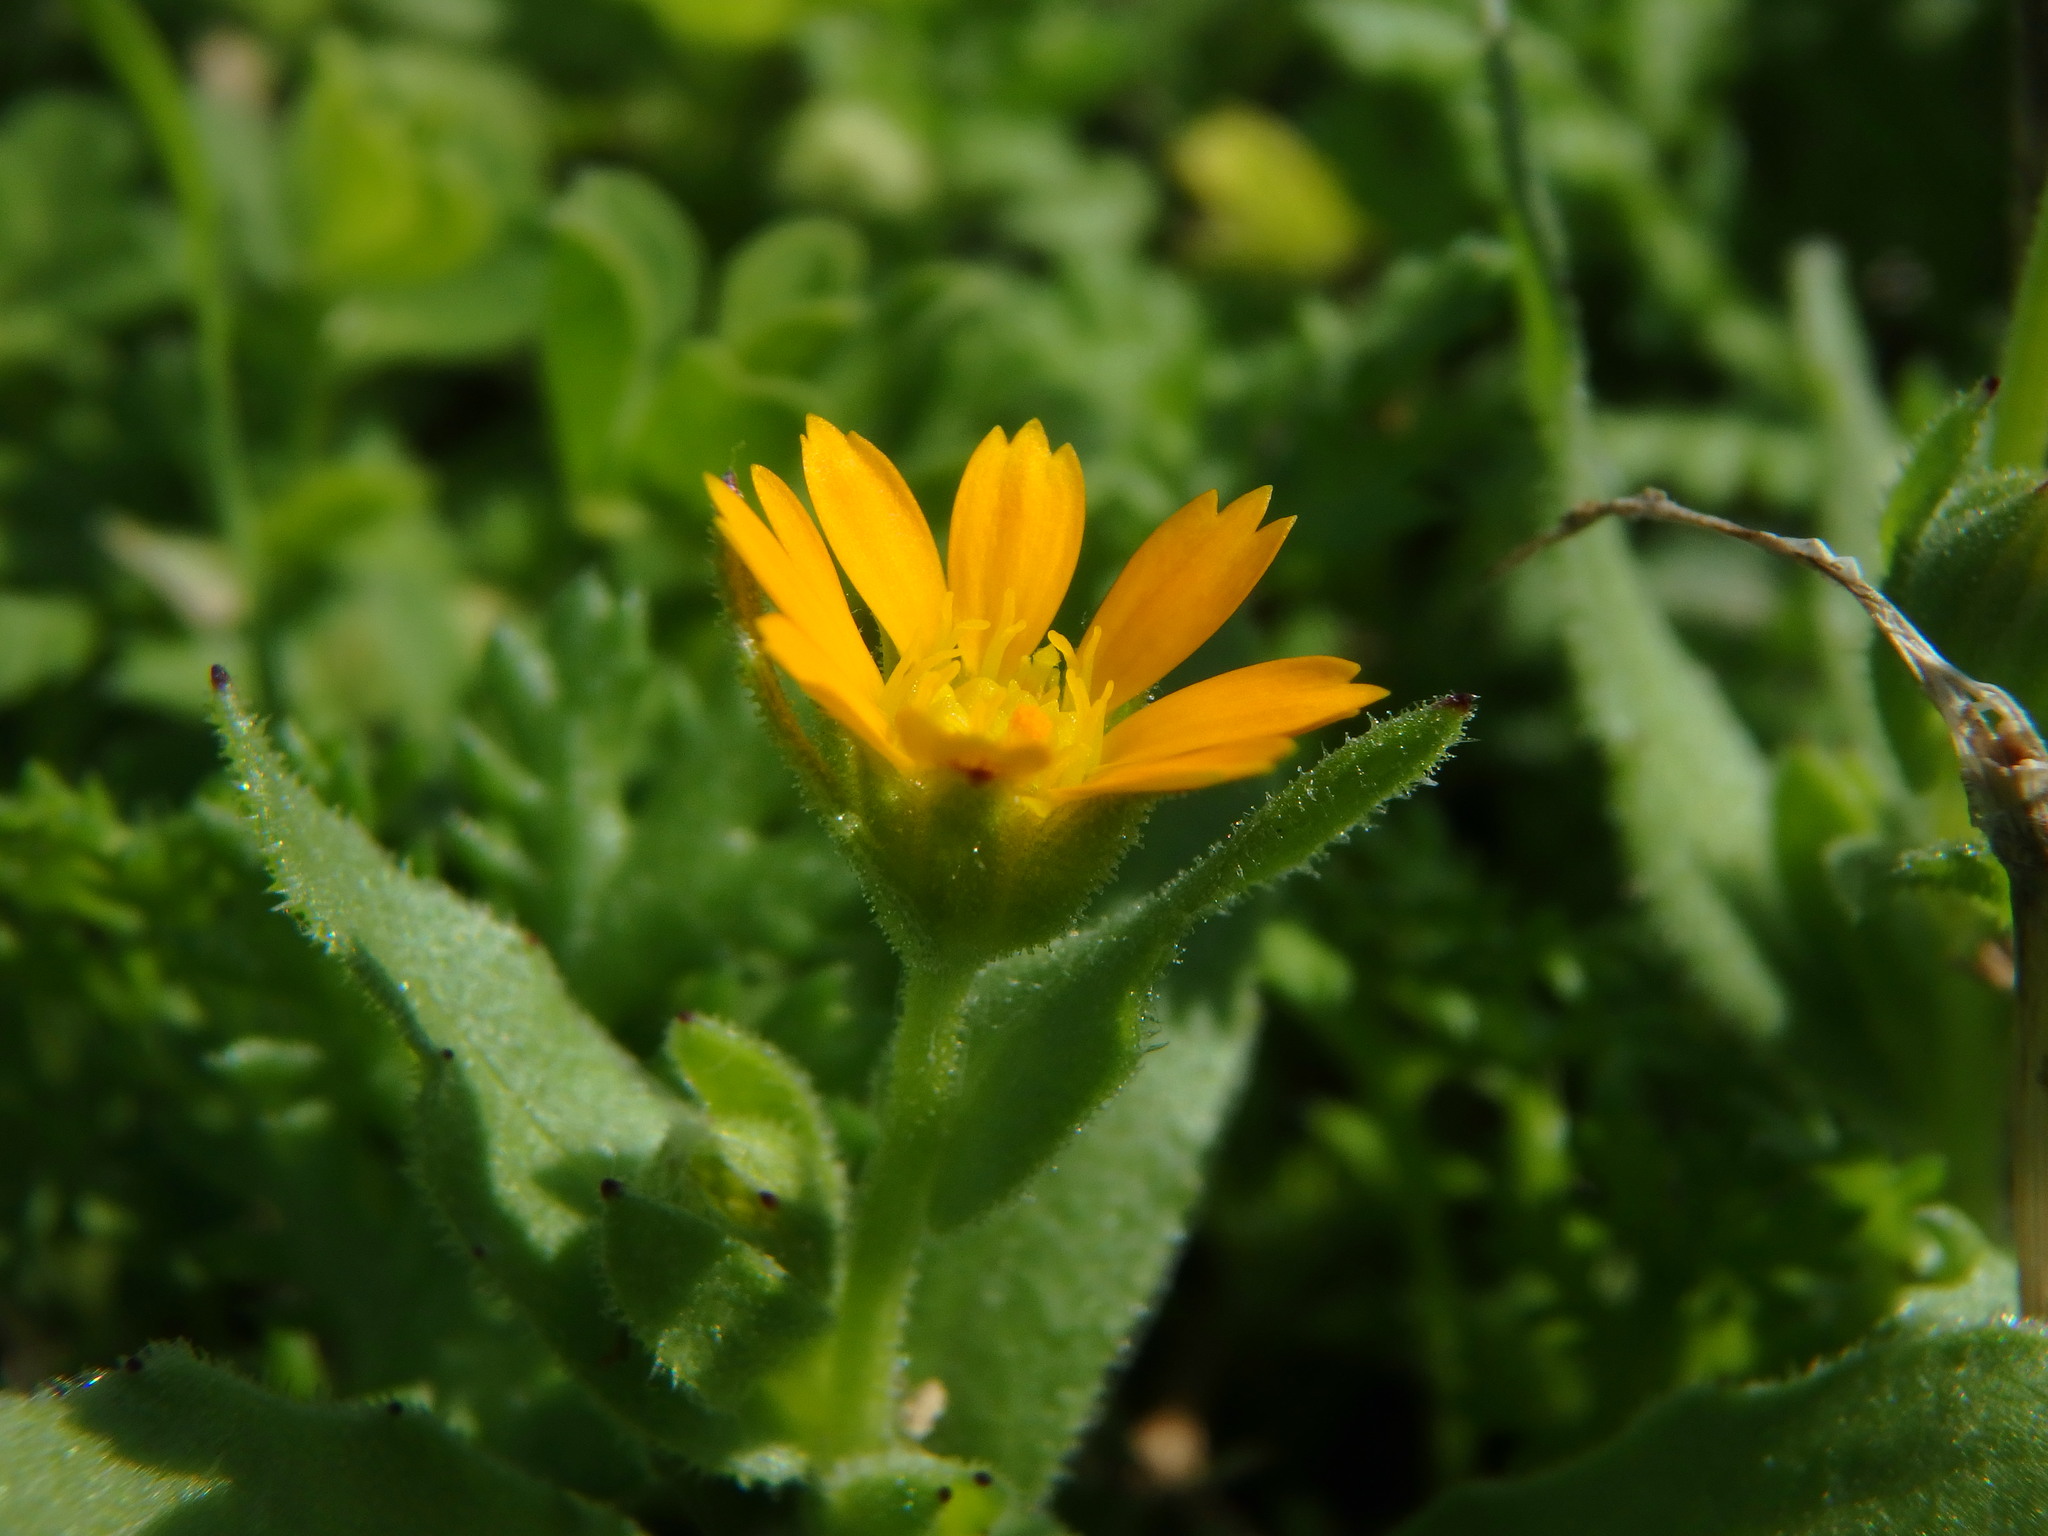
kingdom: Plantae
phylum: Tracheophyta
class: Magnoliopsida
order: Asterales
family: Asteraceae
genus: Calendula
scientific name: Calendula arvensis
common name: Field marigold
